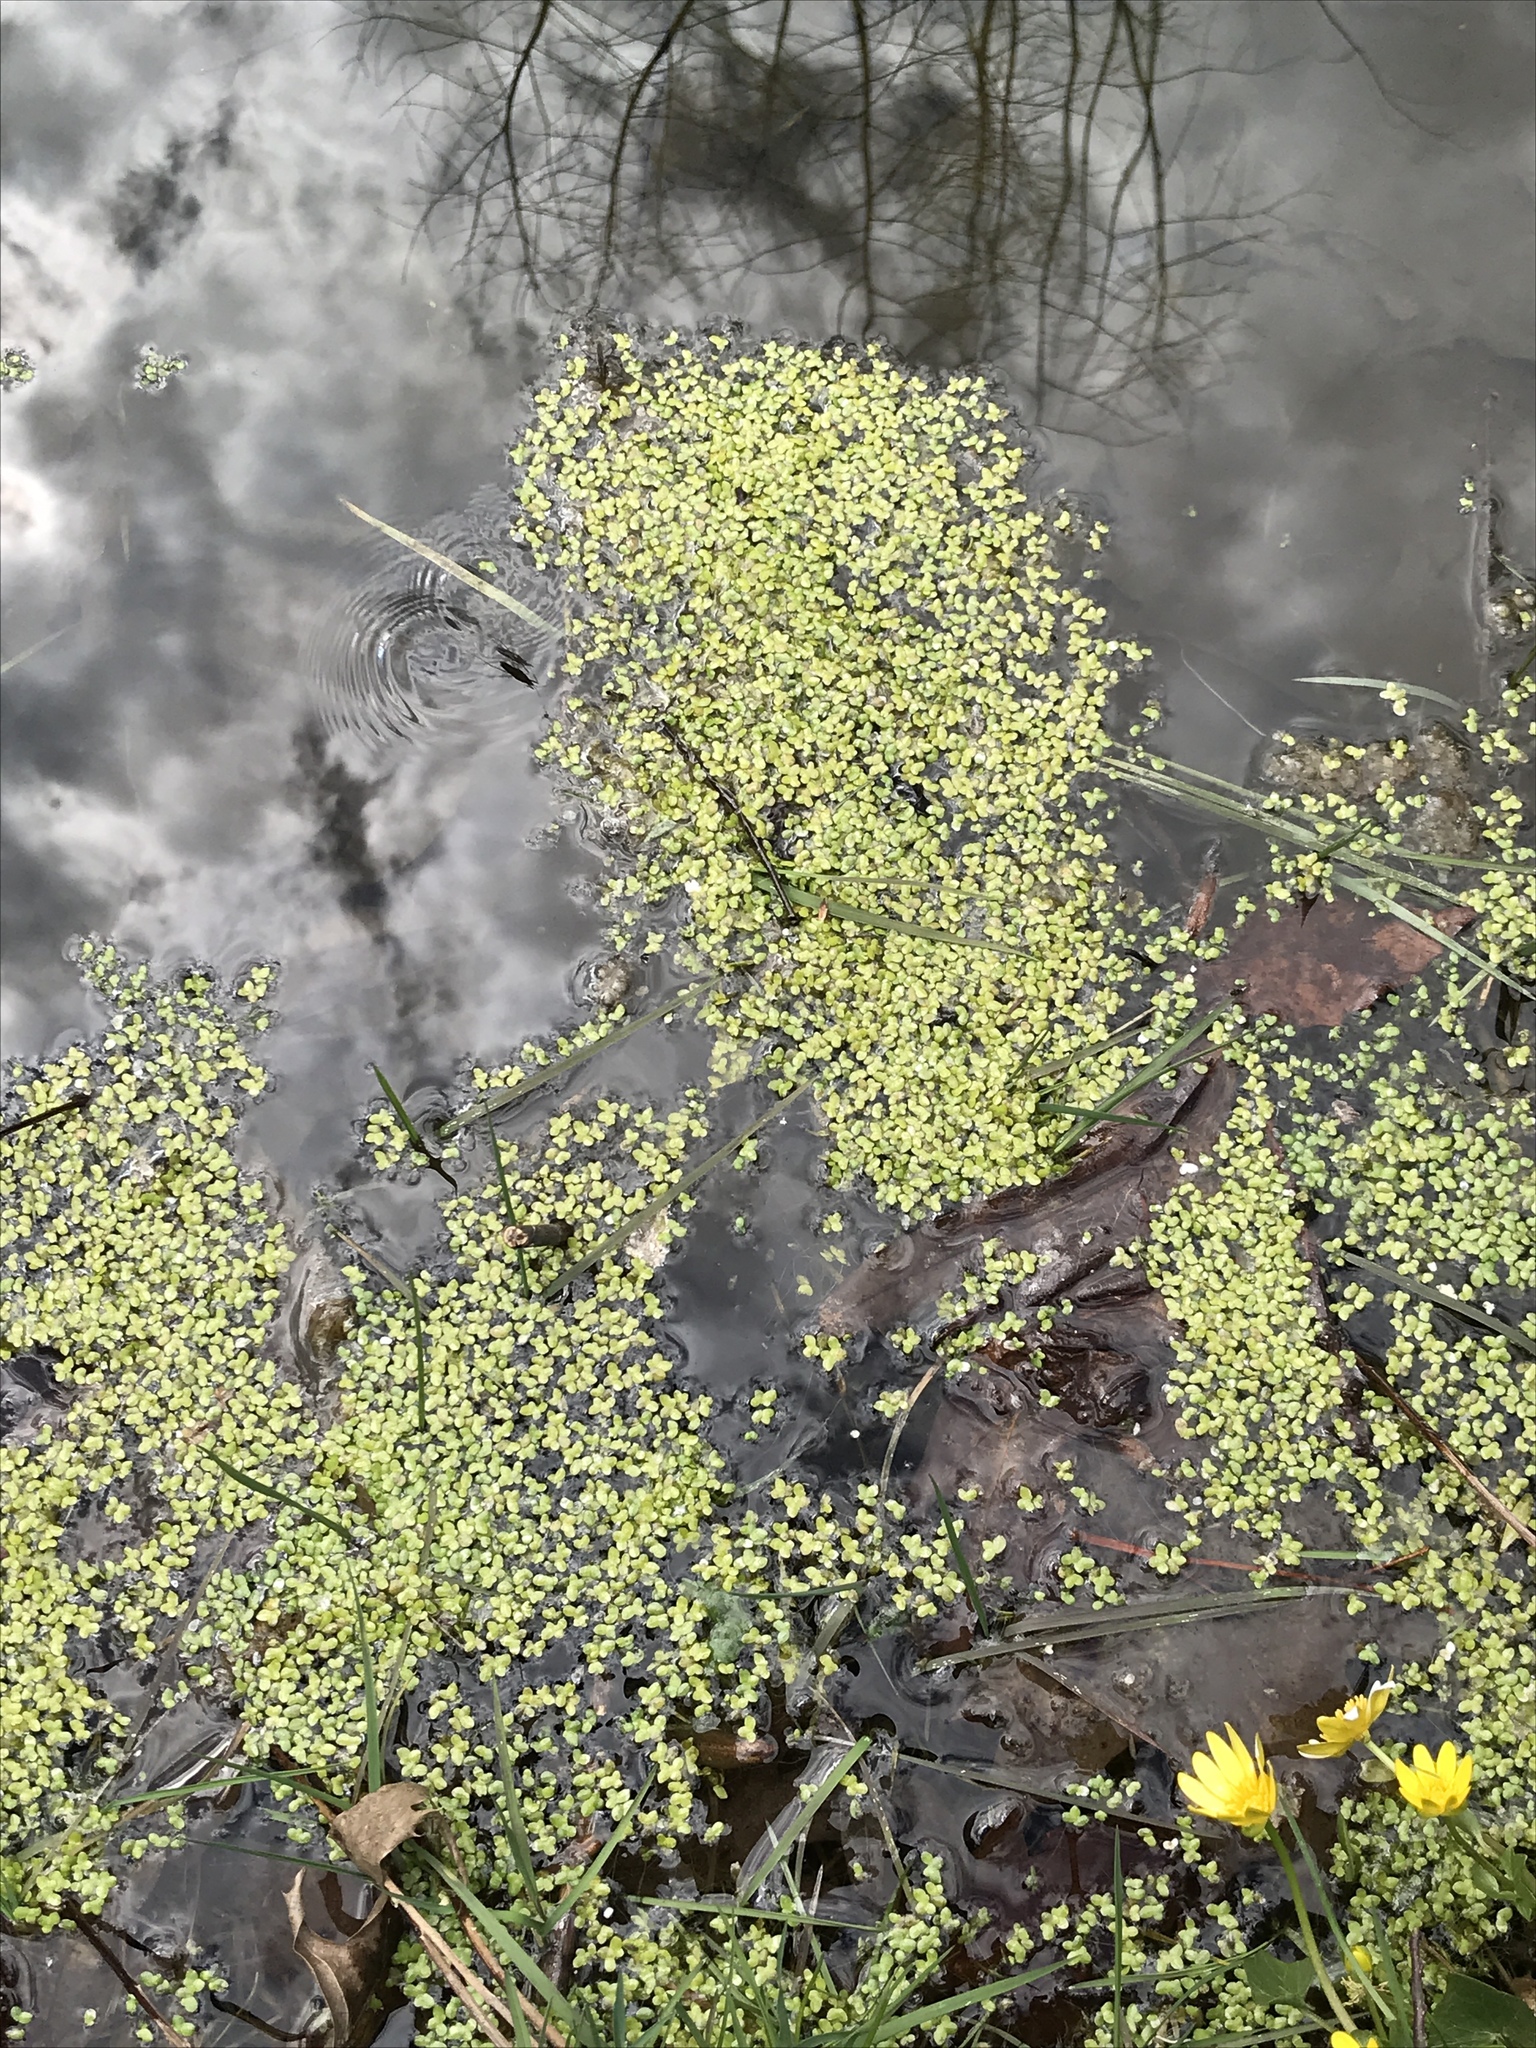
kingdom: Plantae
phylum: Tracheophyta
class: Liliopsida
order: Alismatales
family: Araceae
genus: Lemna
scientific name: Lemna minor
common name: Common duckweed
